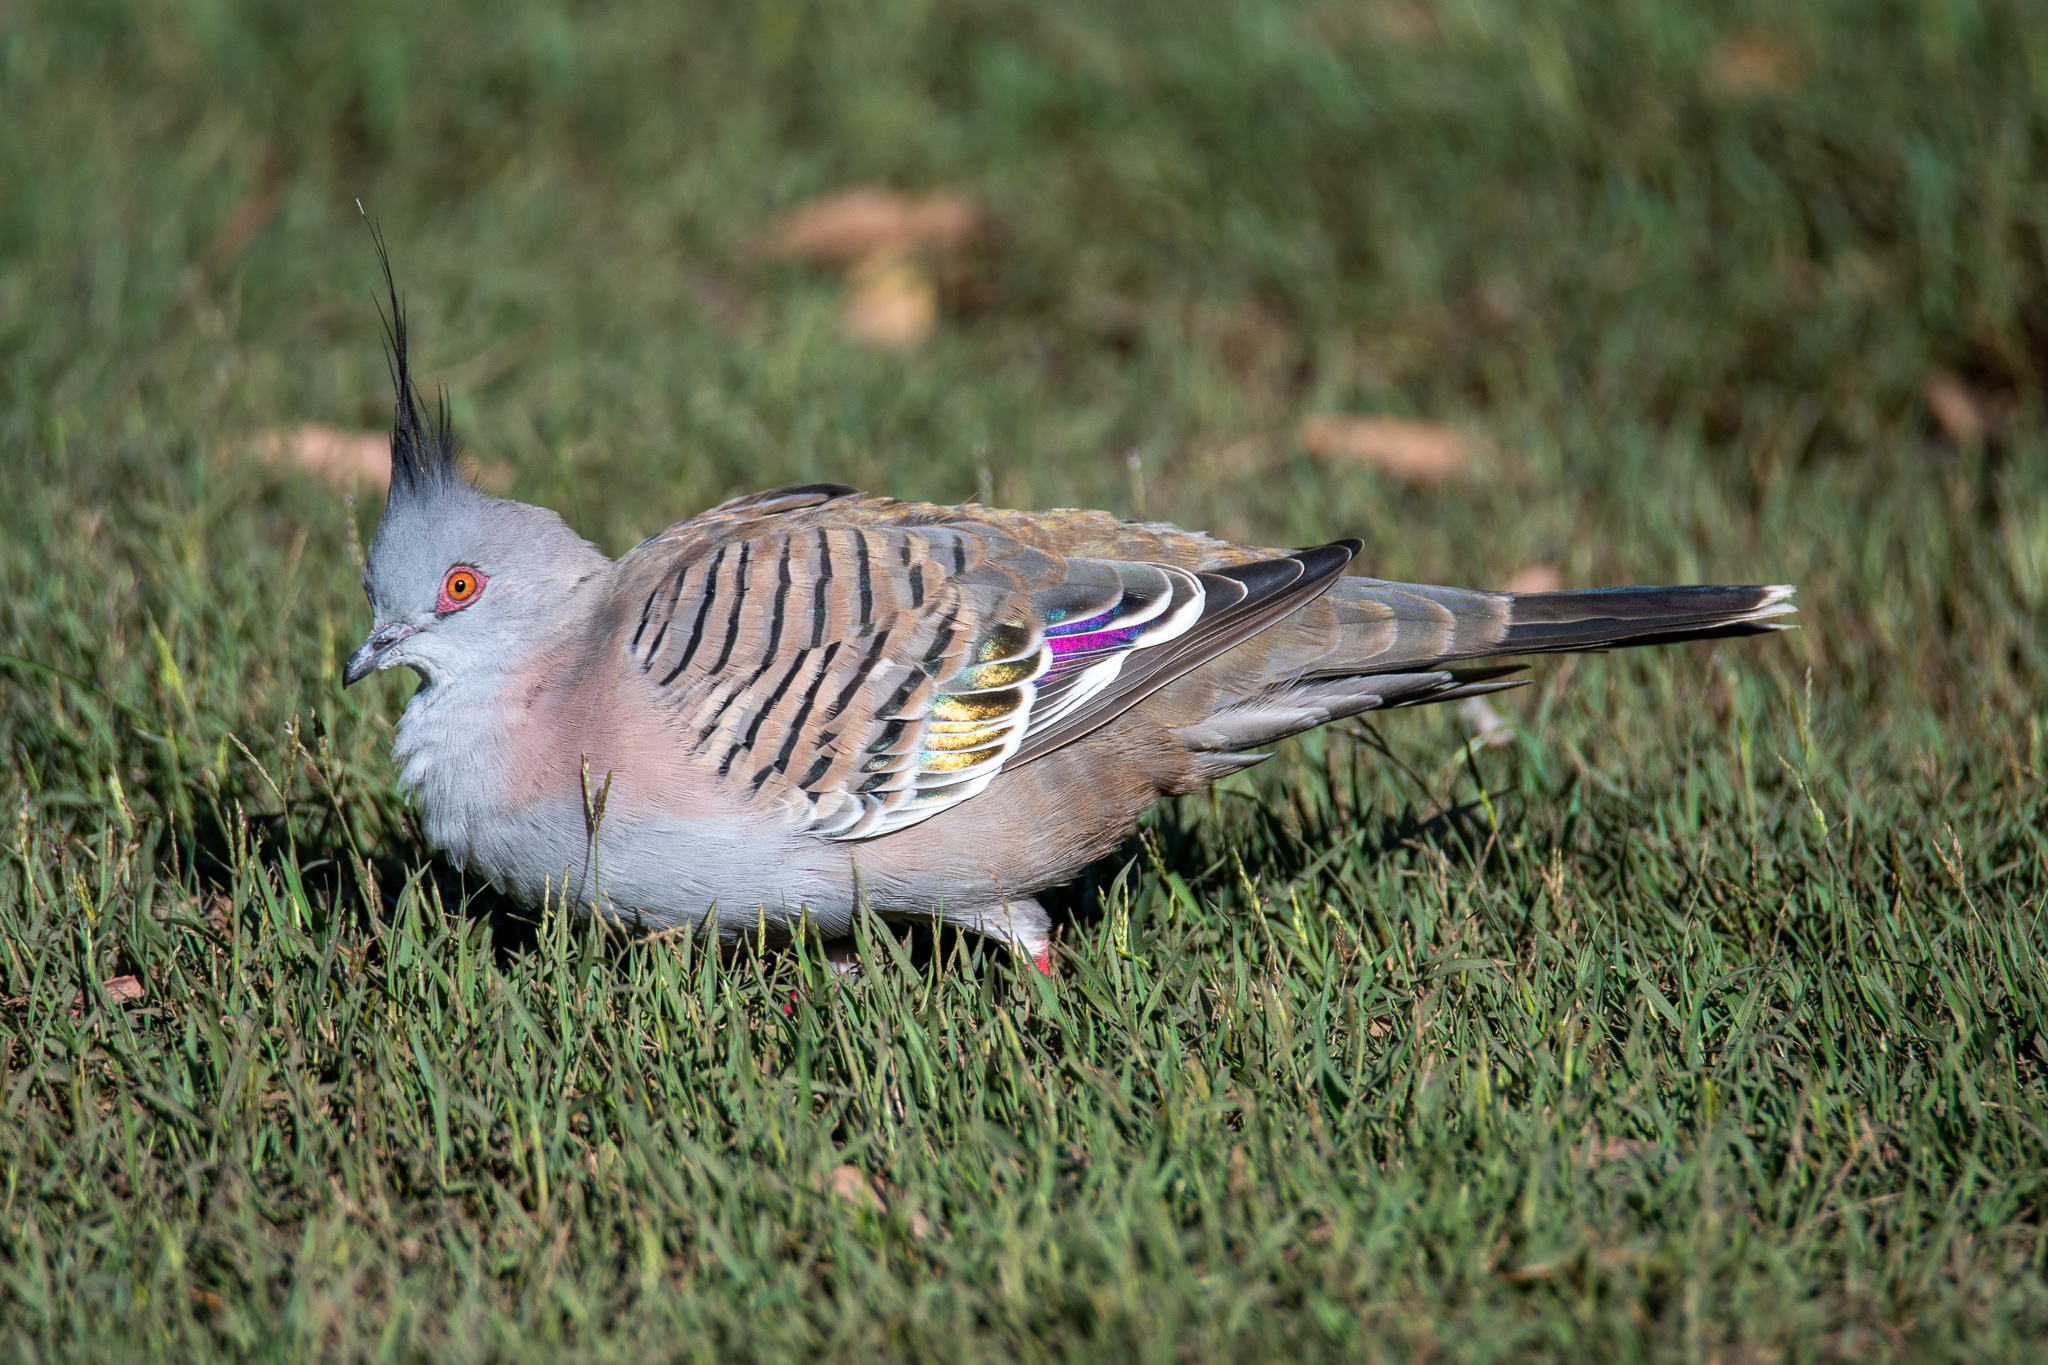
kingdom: Animalia
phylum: Chordata
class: Aves
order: Columbiformes
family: Columbidae
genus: Ocyphaps
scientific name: Ocyphaps lophotes
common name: Crested pigeon
